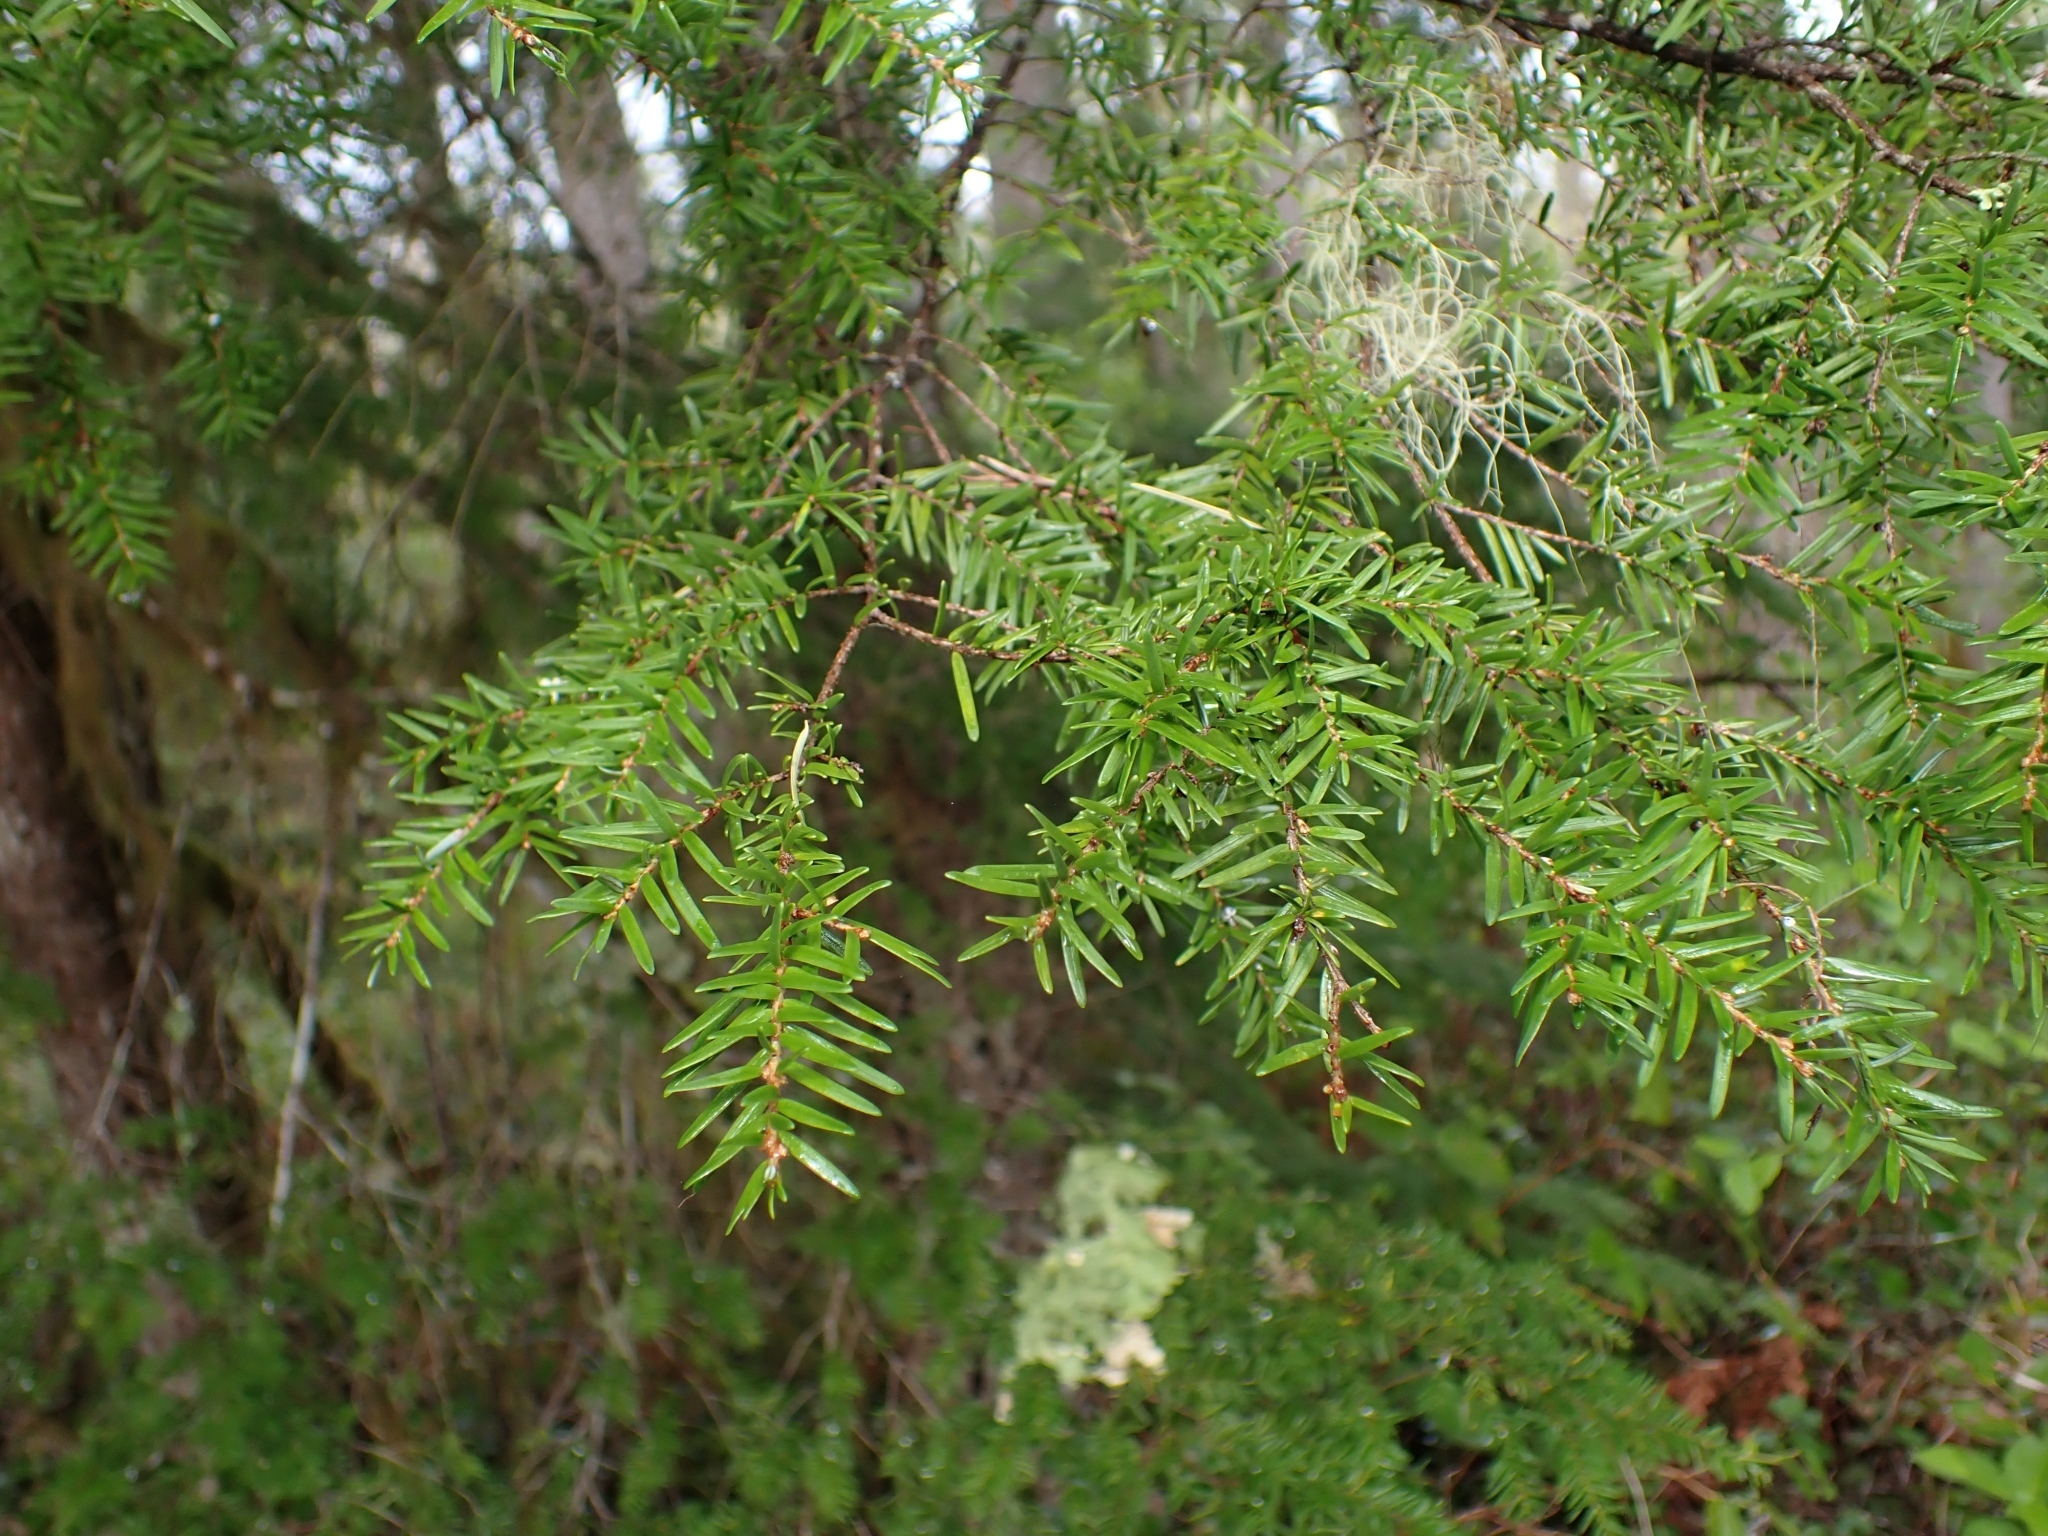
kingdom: Plantae
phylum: Tracheophyta
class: Pinopsida
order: Pinales
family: Pinaceae
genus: Tsuga
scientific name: Tsuga heterophylla
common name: Western hemlock
